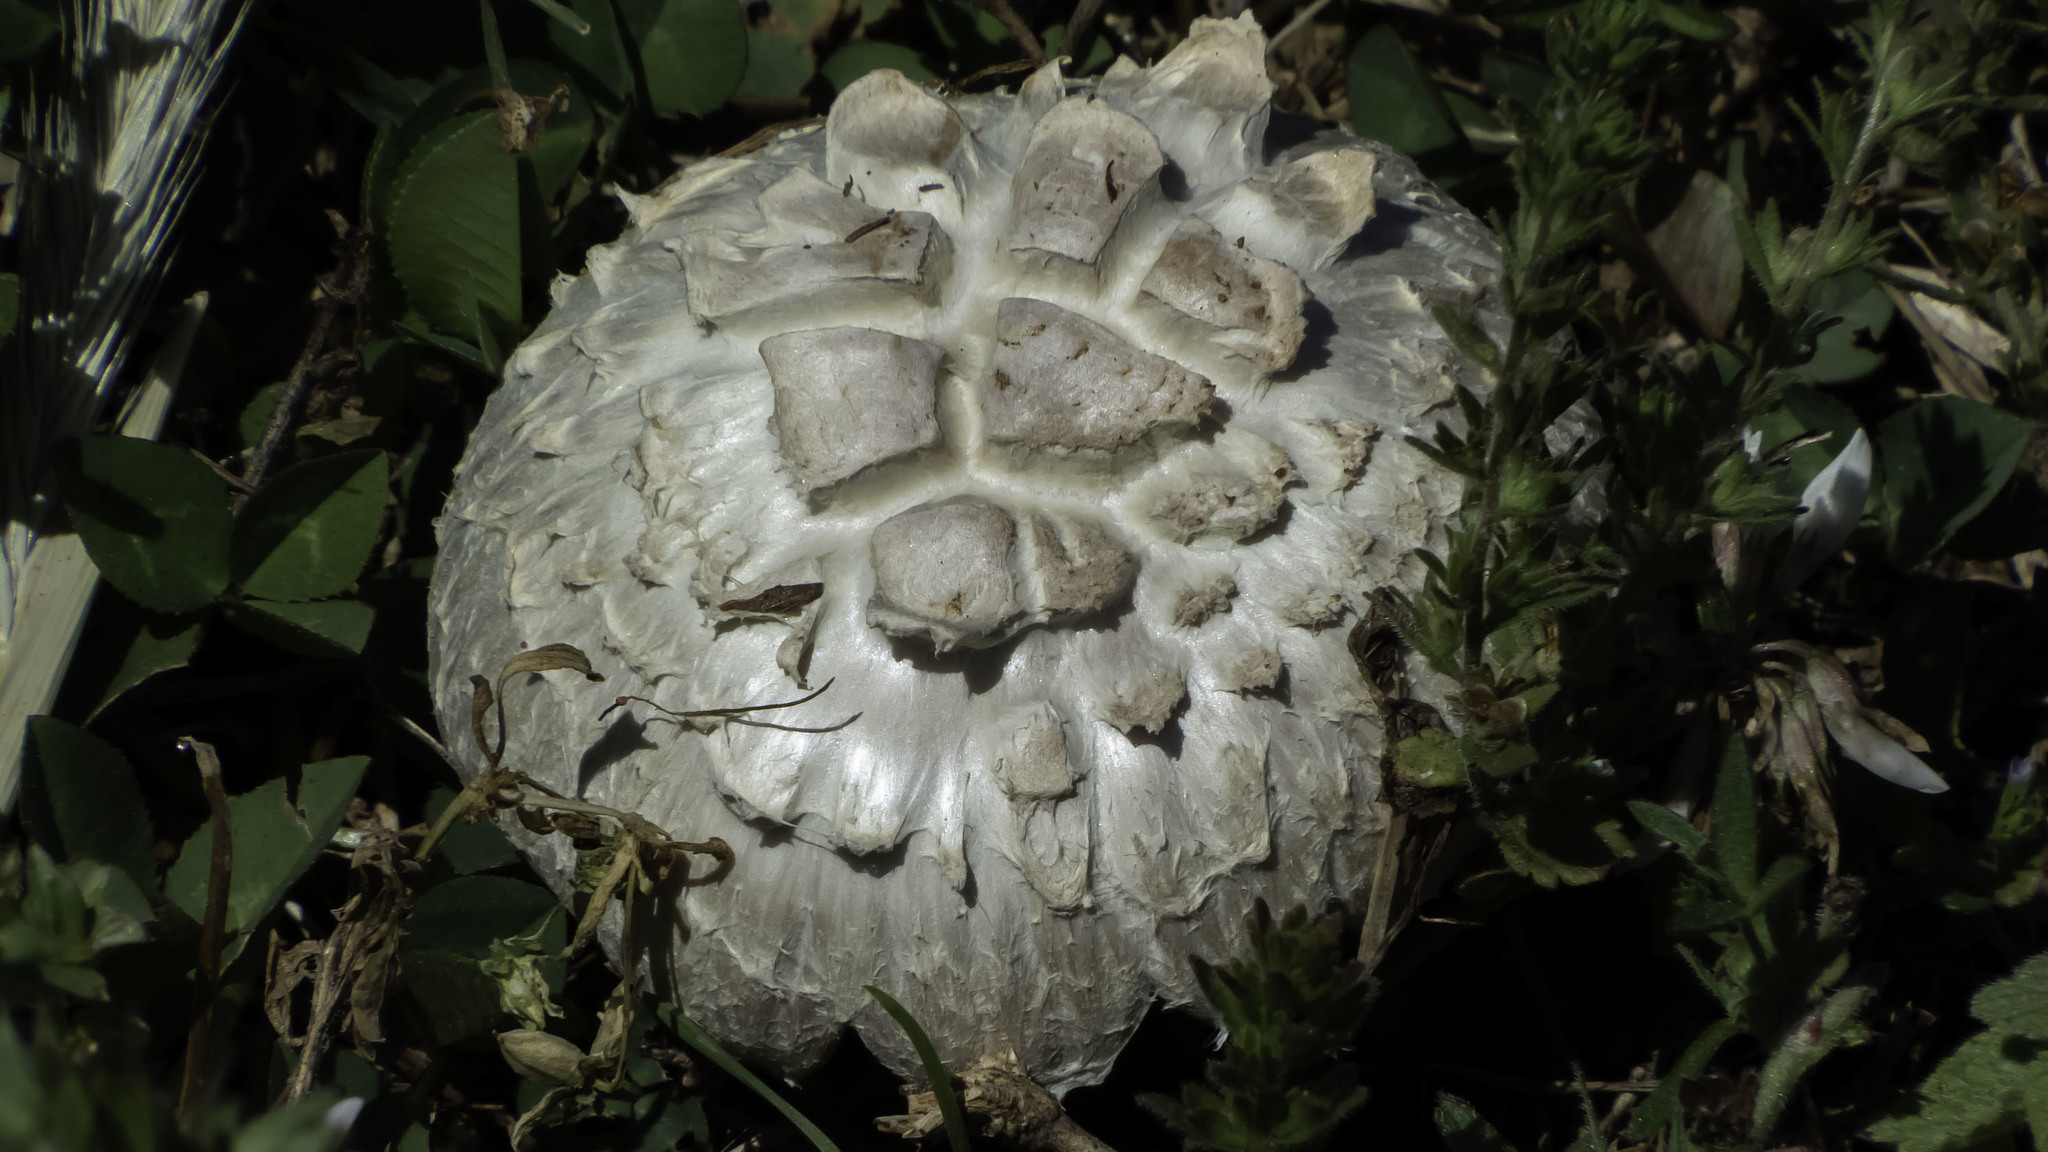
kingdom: Fungi
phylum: Basidiomycota
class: Agaricomycetes
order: Agaricales
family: Agaricaceae
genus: Agaricus
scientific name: Agaricus campestris
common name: Field mushroom
